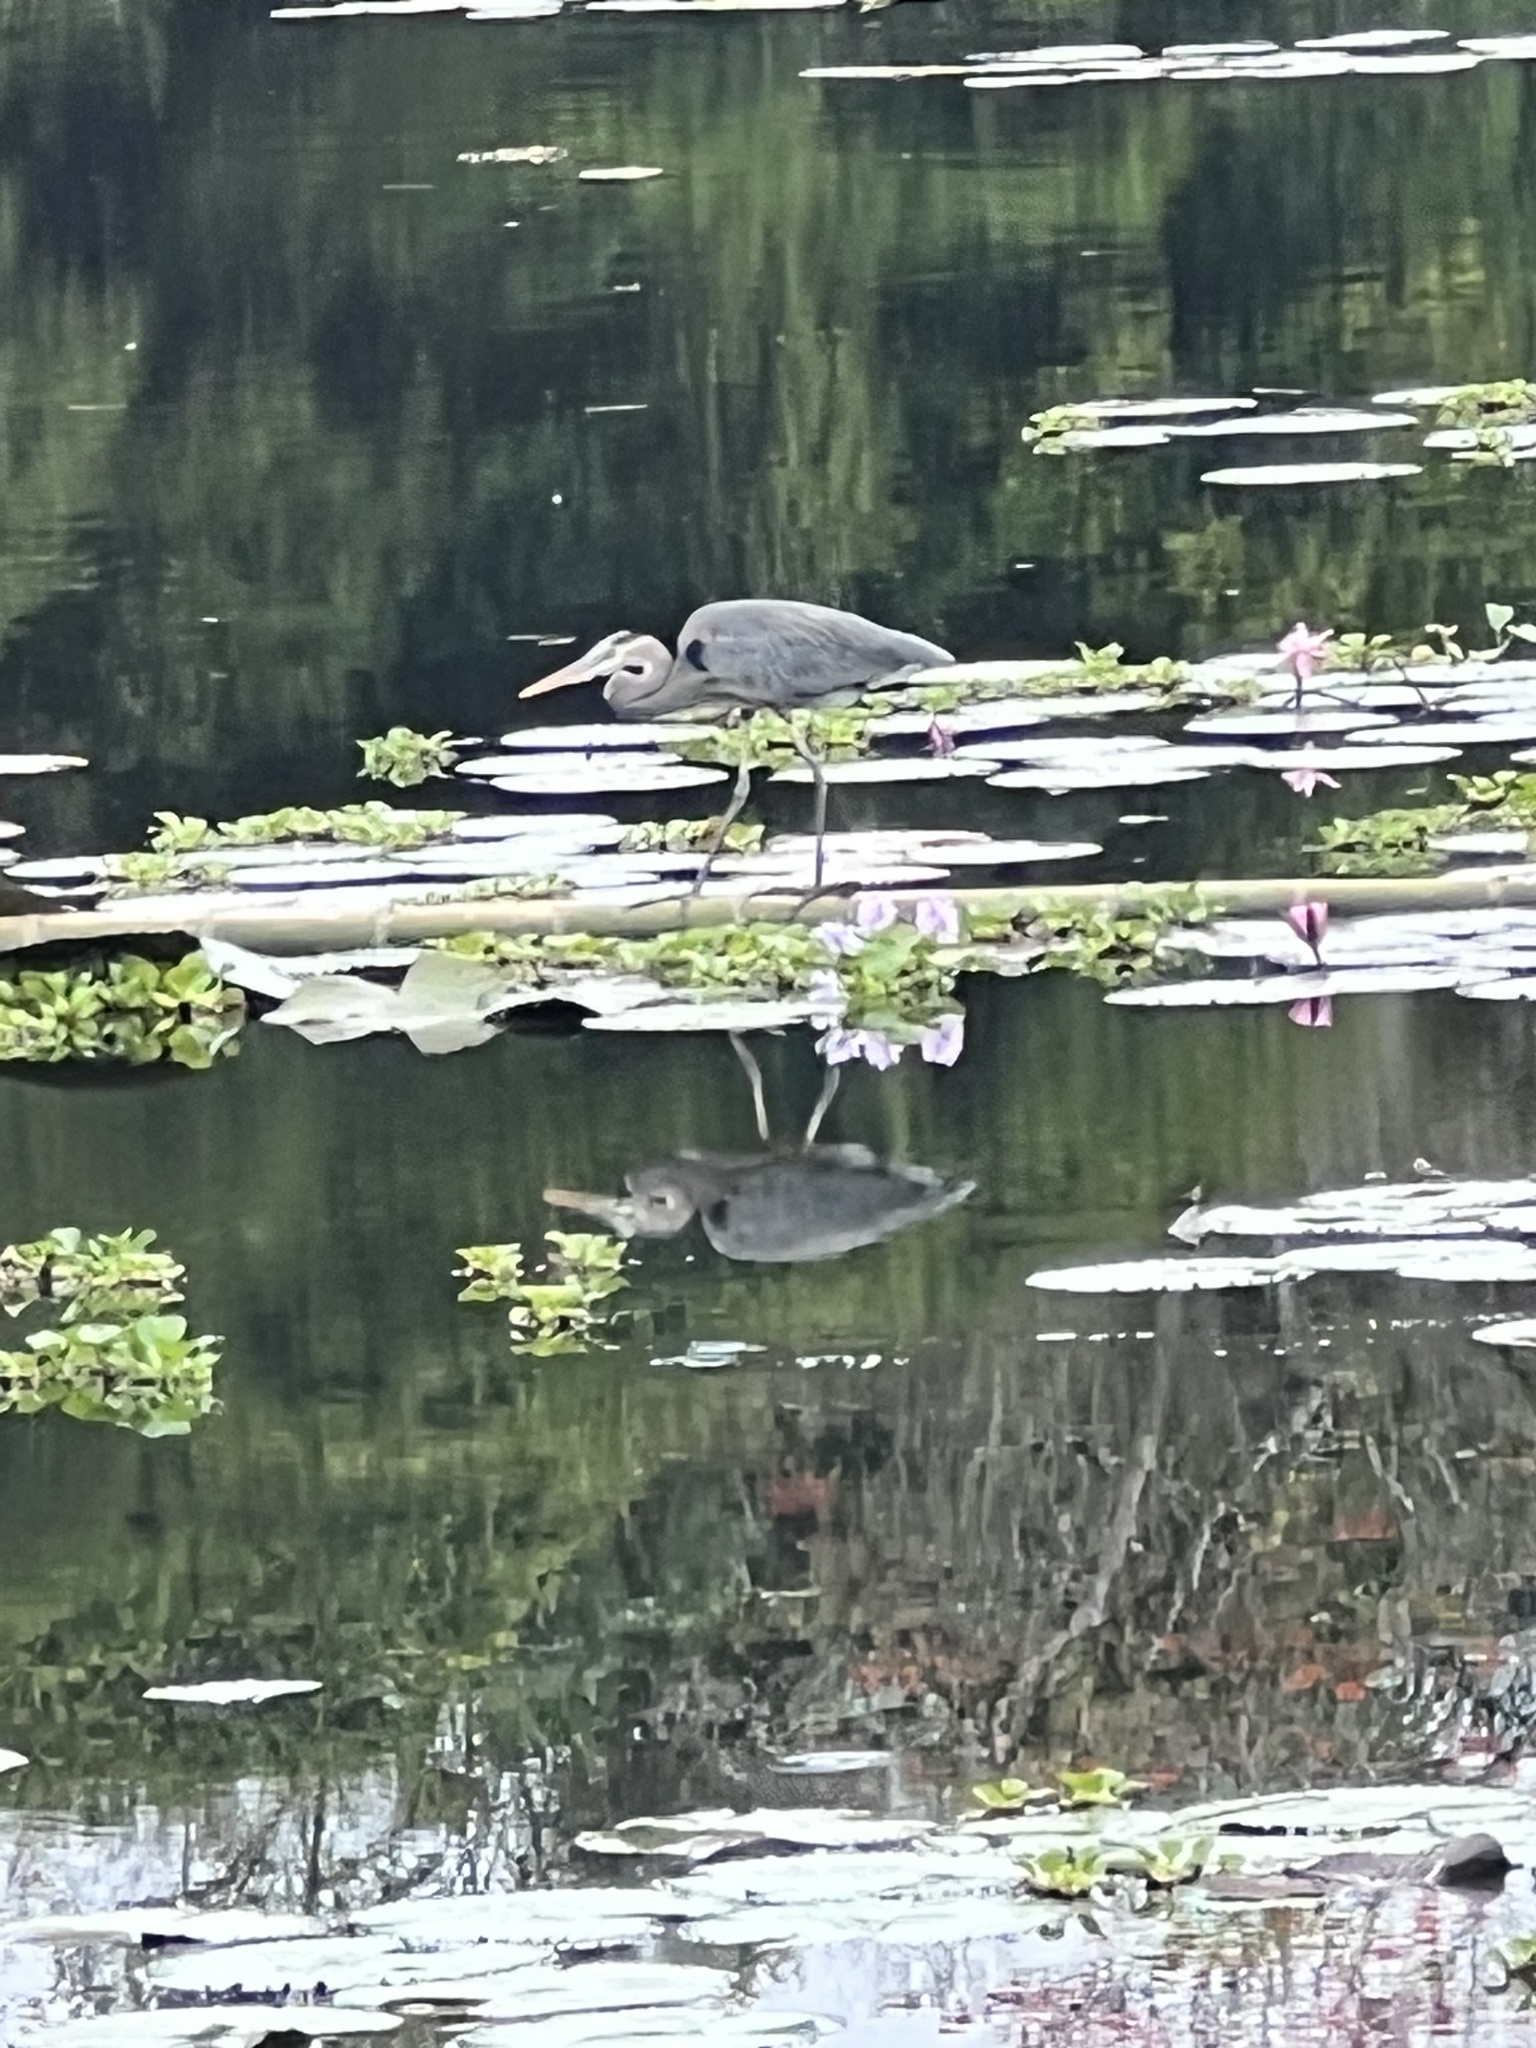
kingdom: Animalia
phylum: Chordata
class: Aves
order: Pelecaniformes
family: Ardeidae
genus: Ardea
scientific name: Ardea herodias
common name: Great blue heron
